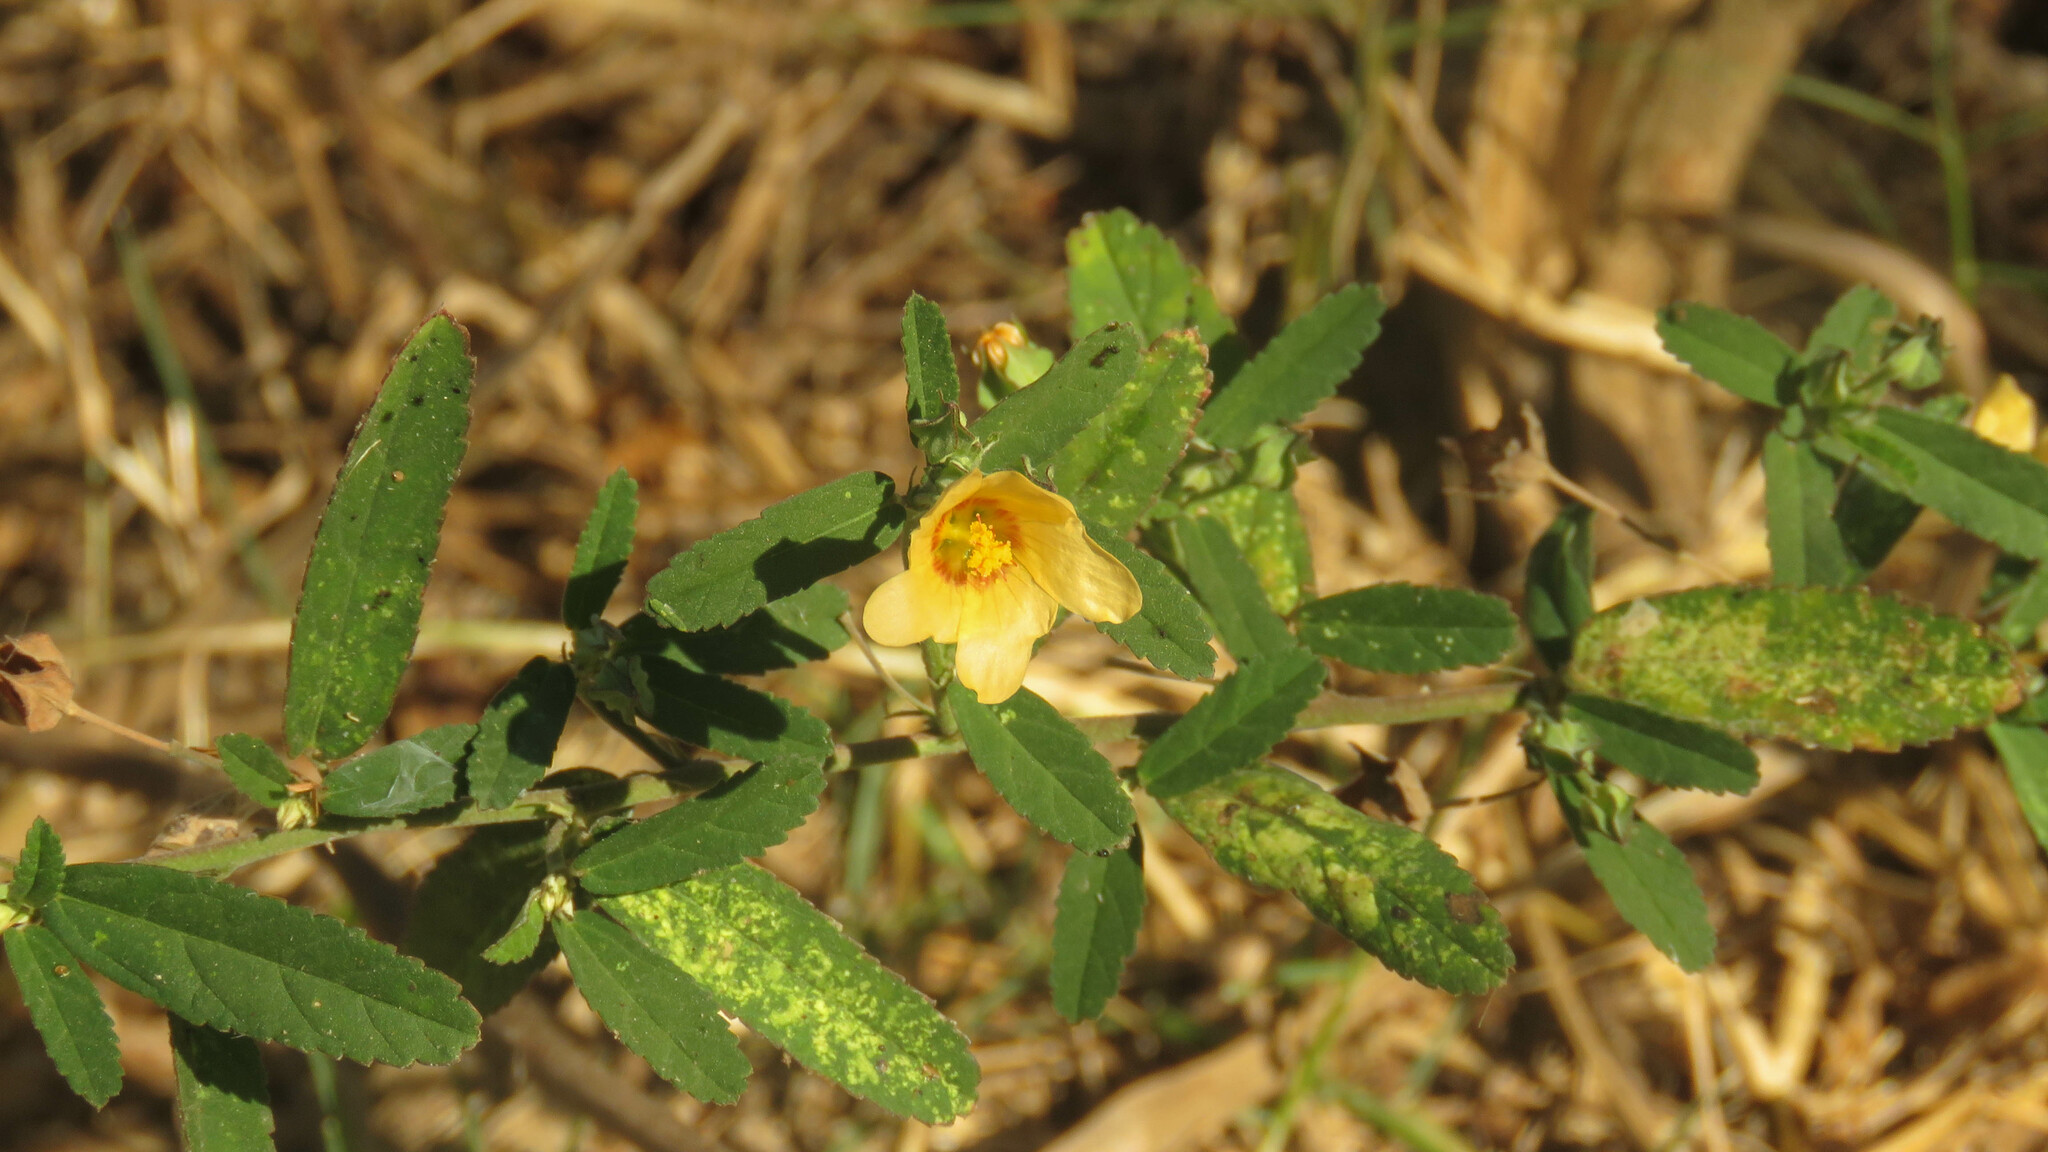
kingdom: Plantae
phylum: Tracheophyta
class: Magnoliopsida
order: Malvales
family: Malvaceae
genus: Sida
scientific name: Sida spinosa
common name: Prickly fanpetals
